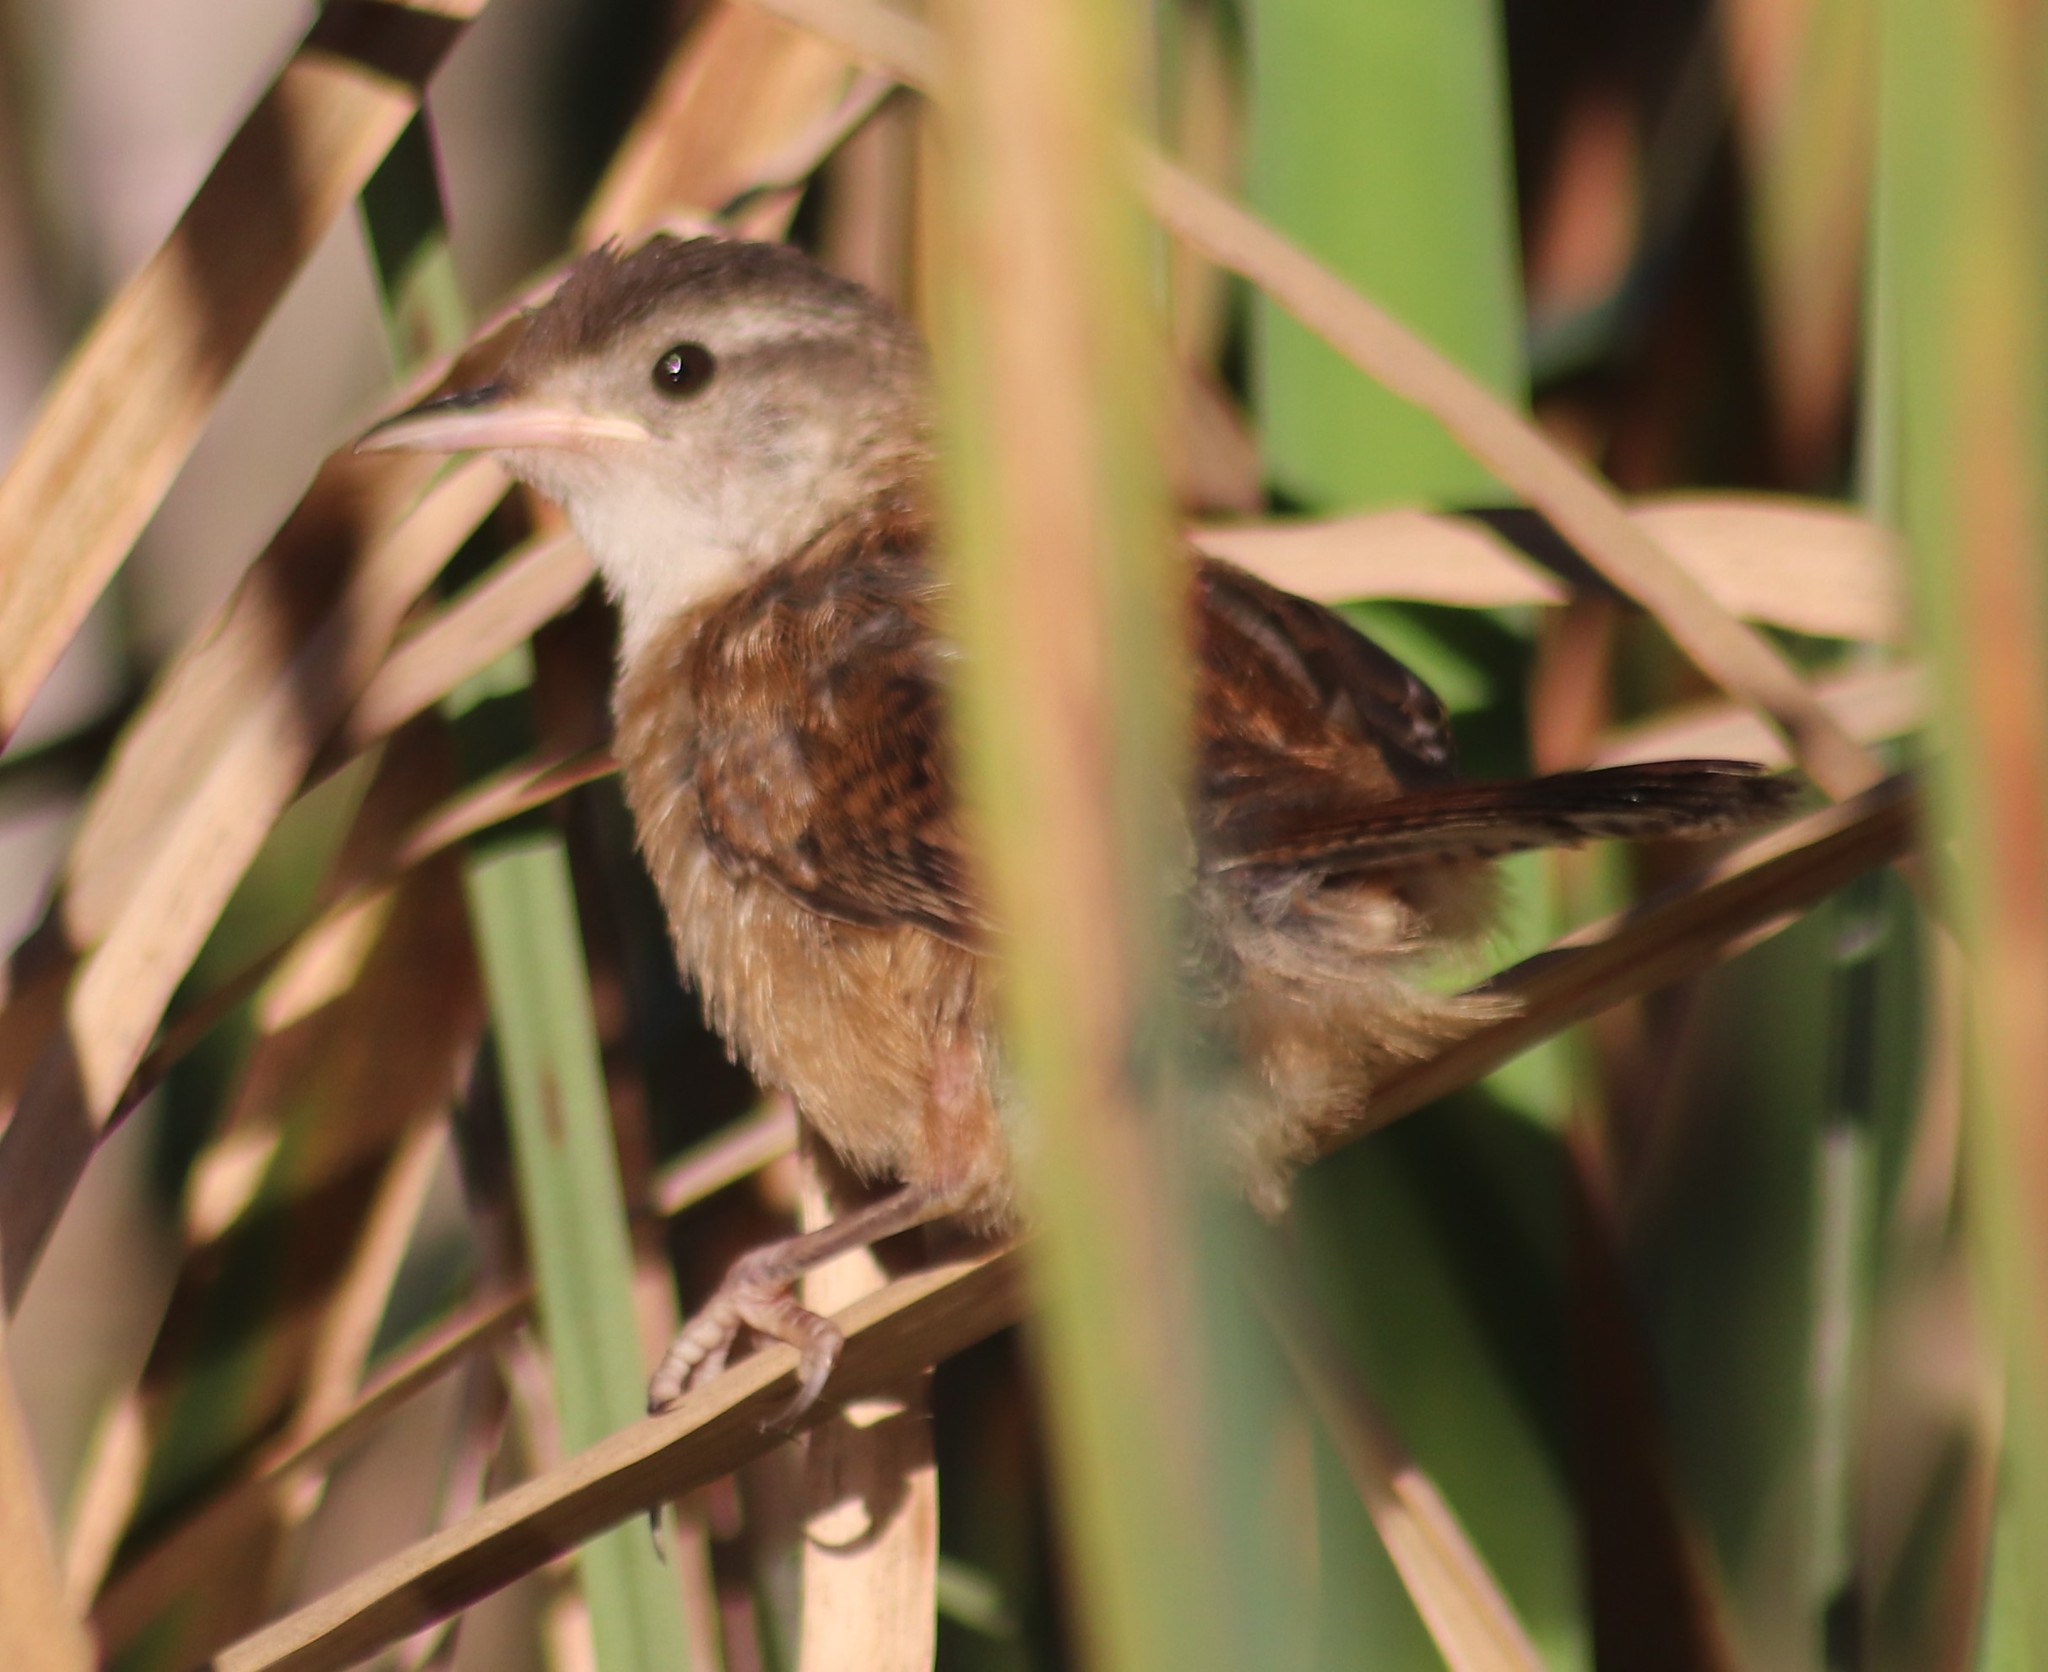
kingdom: Animalia
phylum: Chordata
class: Aves
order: Passeriformes
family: Troglodytidae
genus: Cistothorus
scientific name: Cistothorus palustris
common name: Marsh wren
